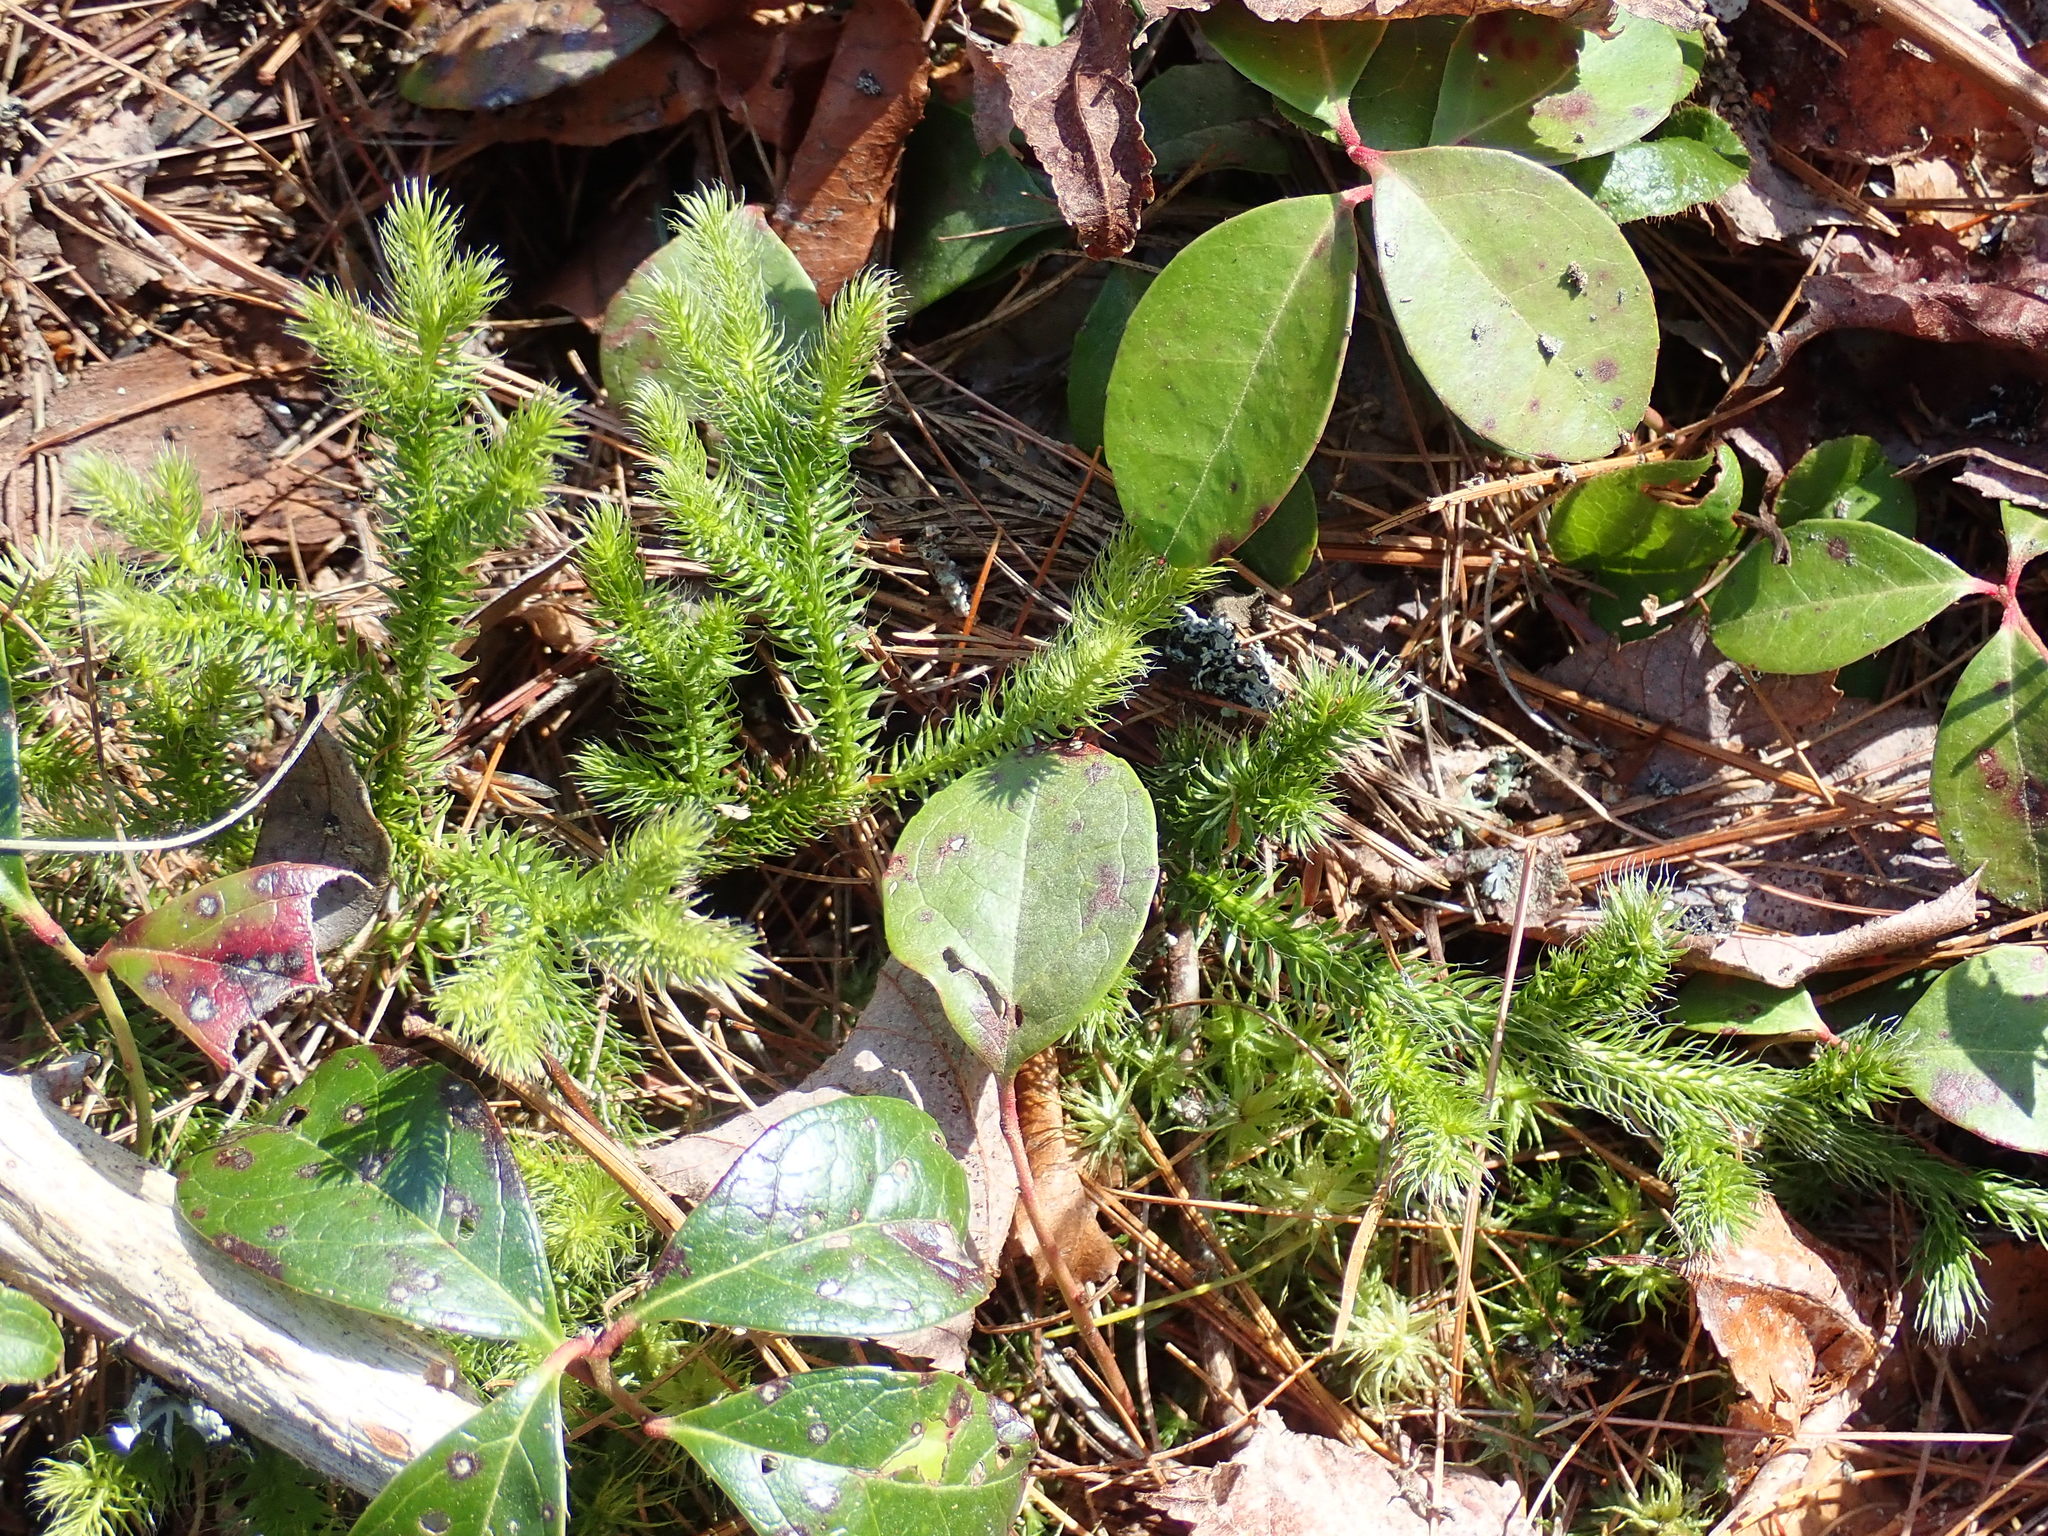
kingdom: Plantae
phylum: Tracheophyta
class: Lycopodiopsida
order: Lycopodiales
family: Lycopodiaceae
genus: Lycopodium
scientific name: Lycopodium clavatum
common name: Stag's-horn clubmoss
